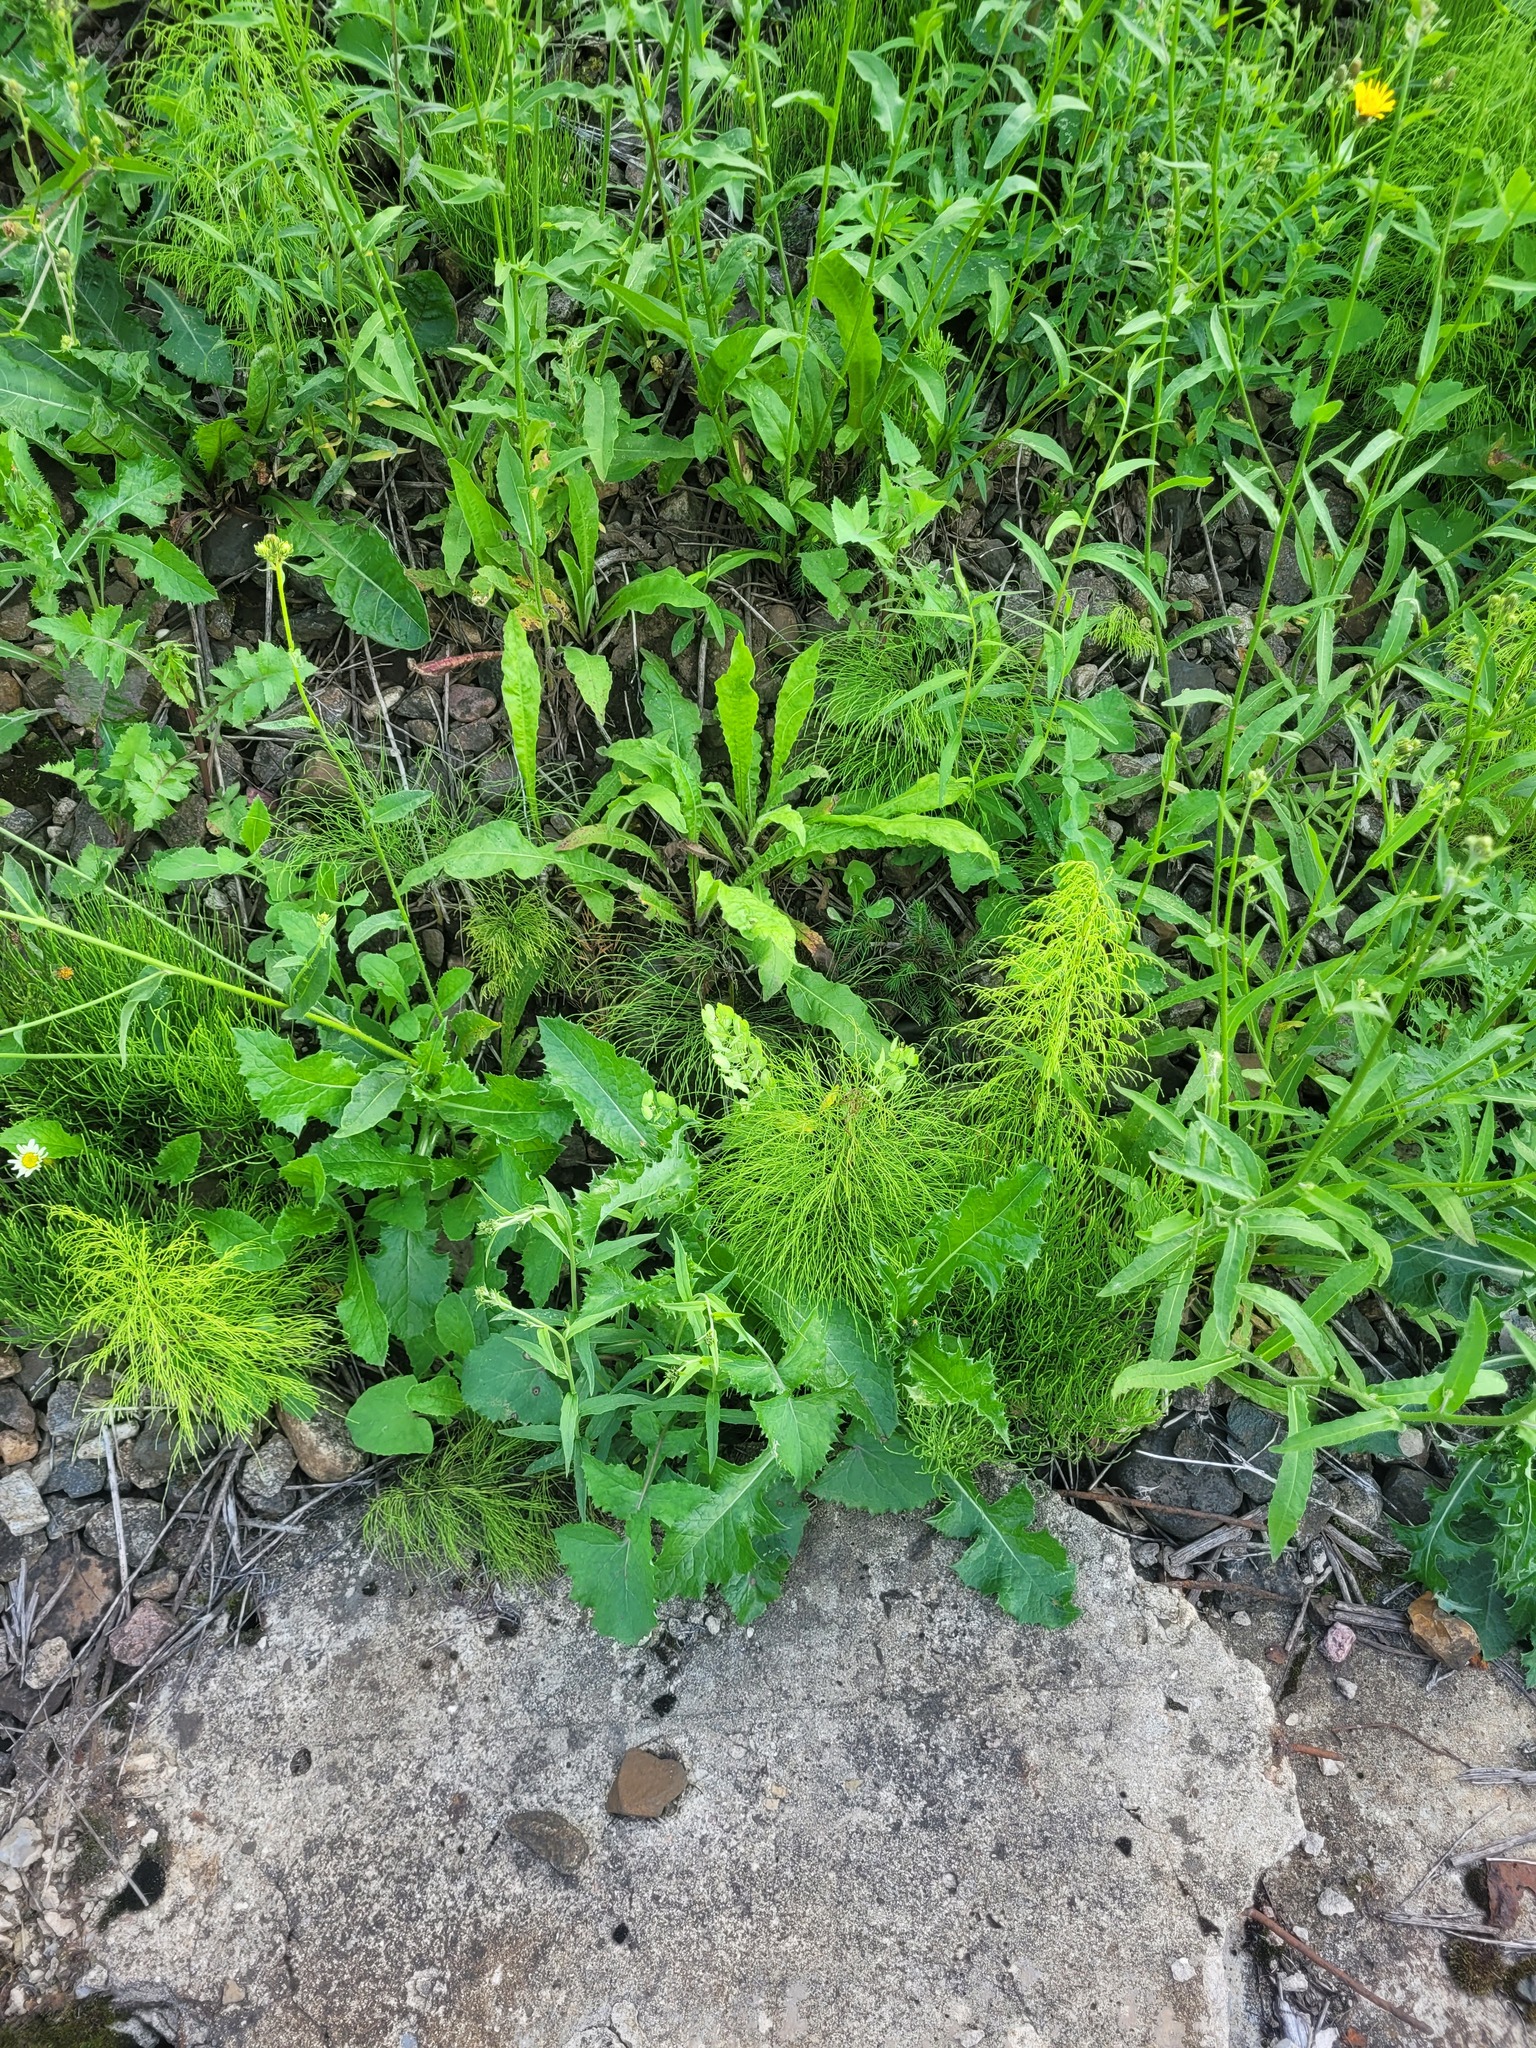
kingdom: Plantae
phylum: Tracheophyta
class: Polypodiopsida
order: Equisetales
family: Equisetaceae
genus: Equisetum
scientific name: Equisetum sylvaticum
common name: Wood horsetail
